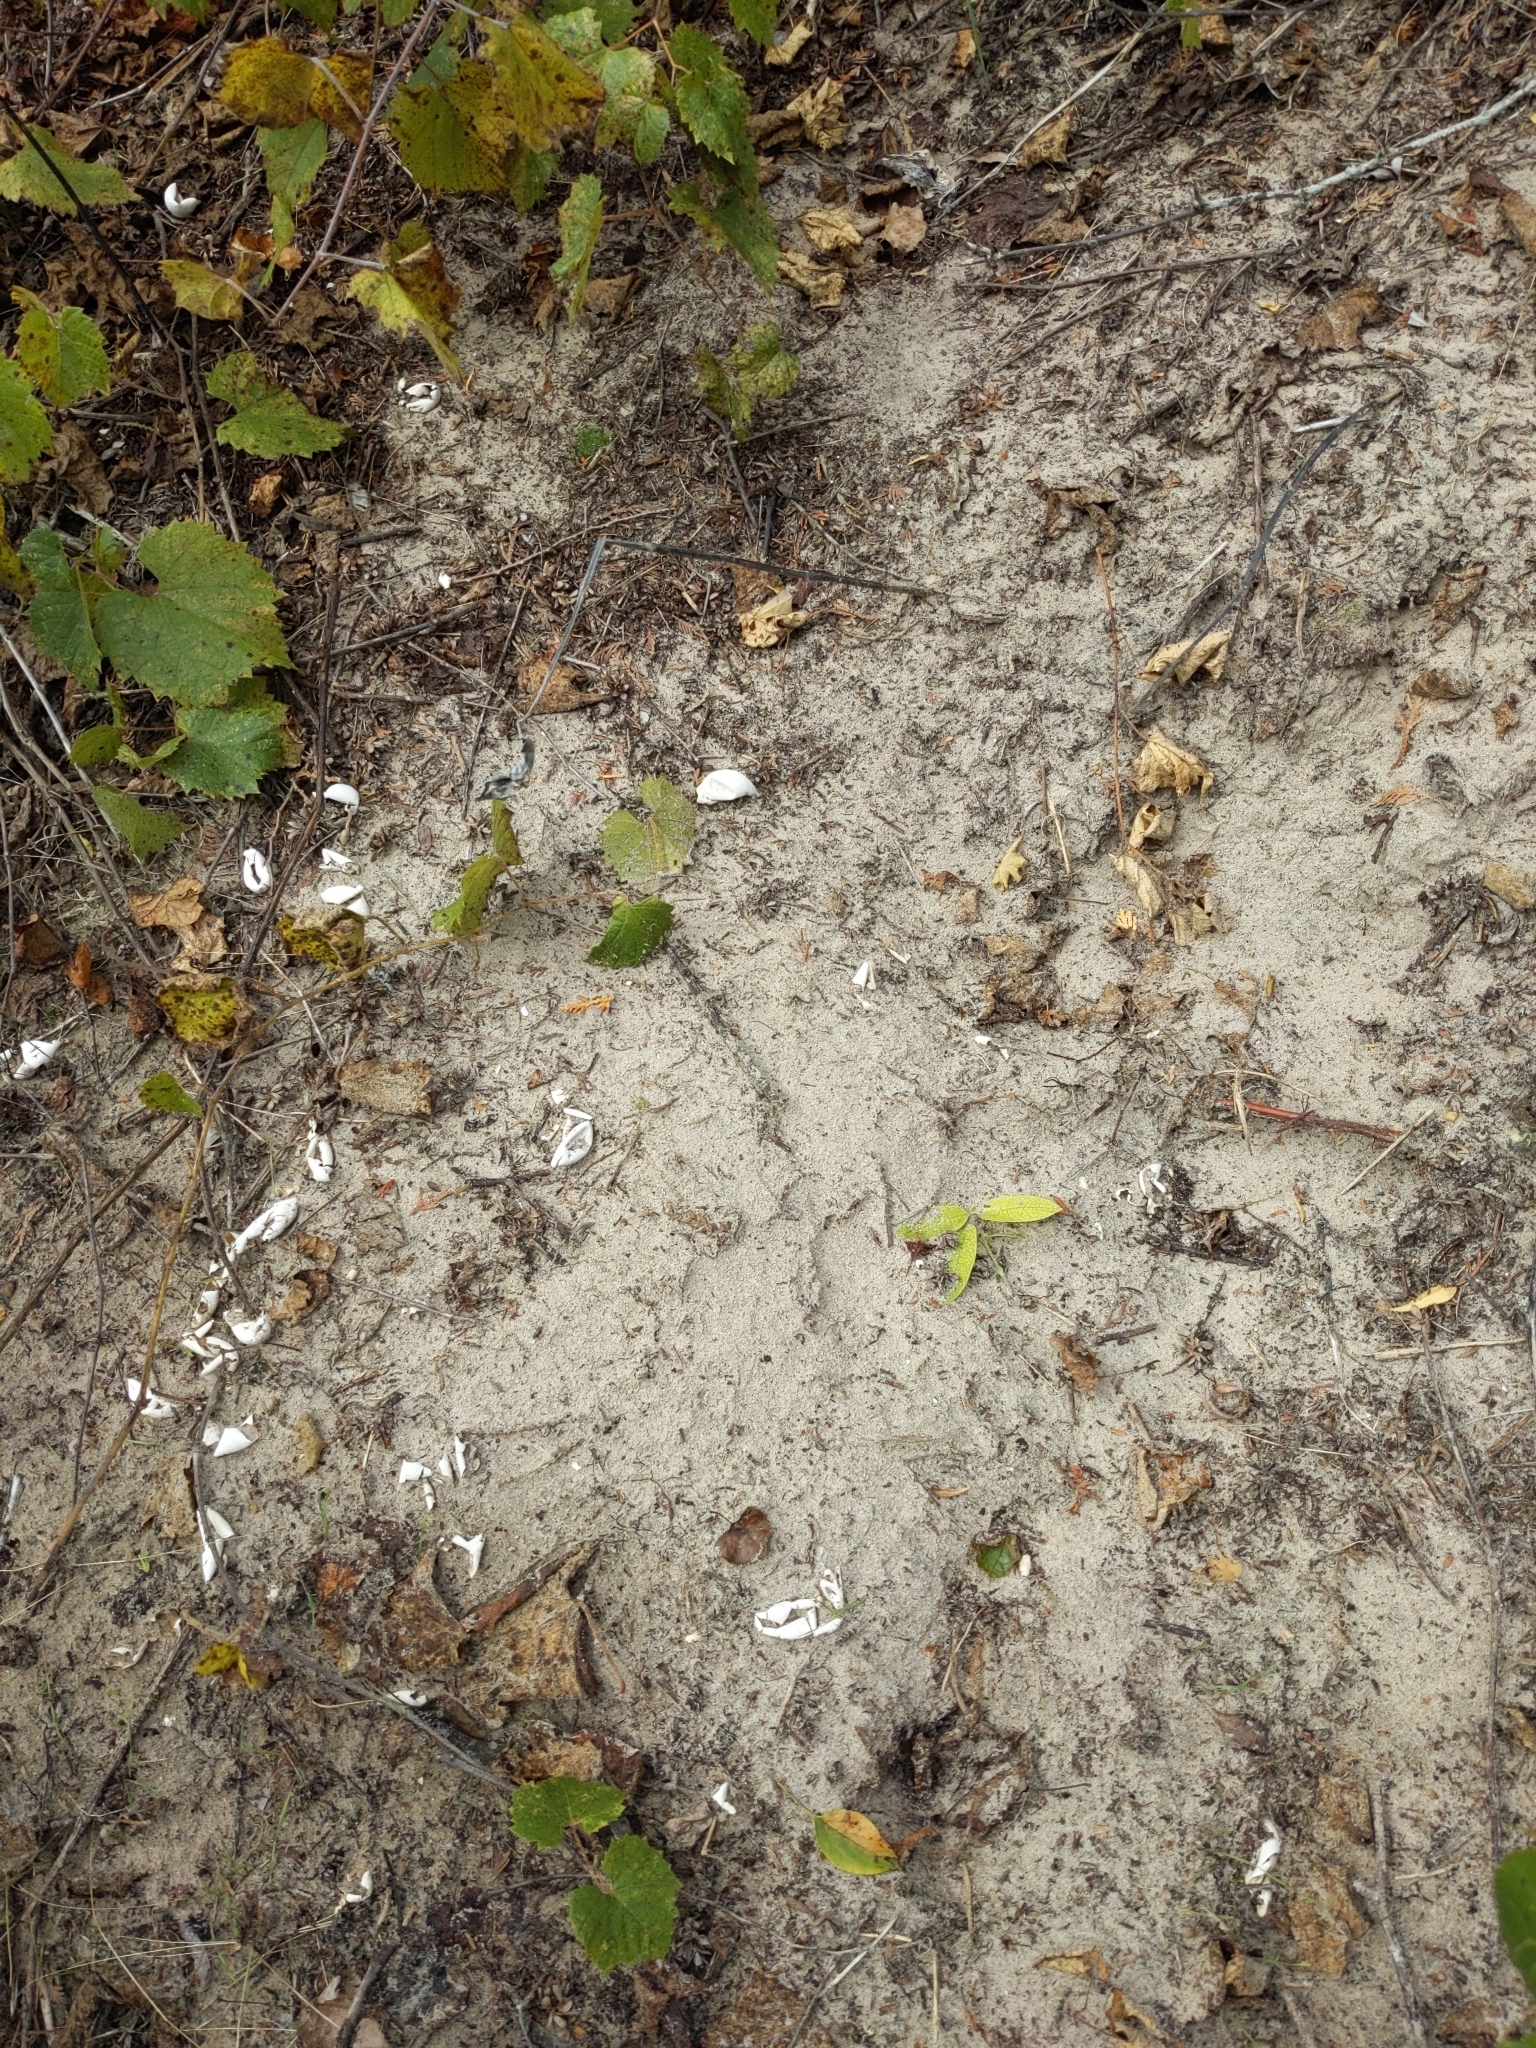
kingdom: Animalia
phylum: Chordata
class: Testudines
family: Chelydridae
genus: Chelydra
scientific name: Chelydra serpentina
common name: Common snapping turtle
